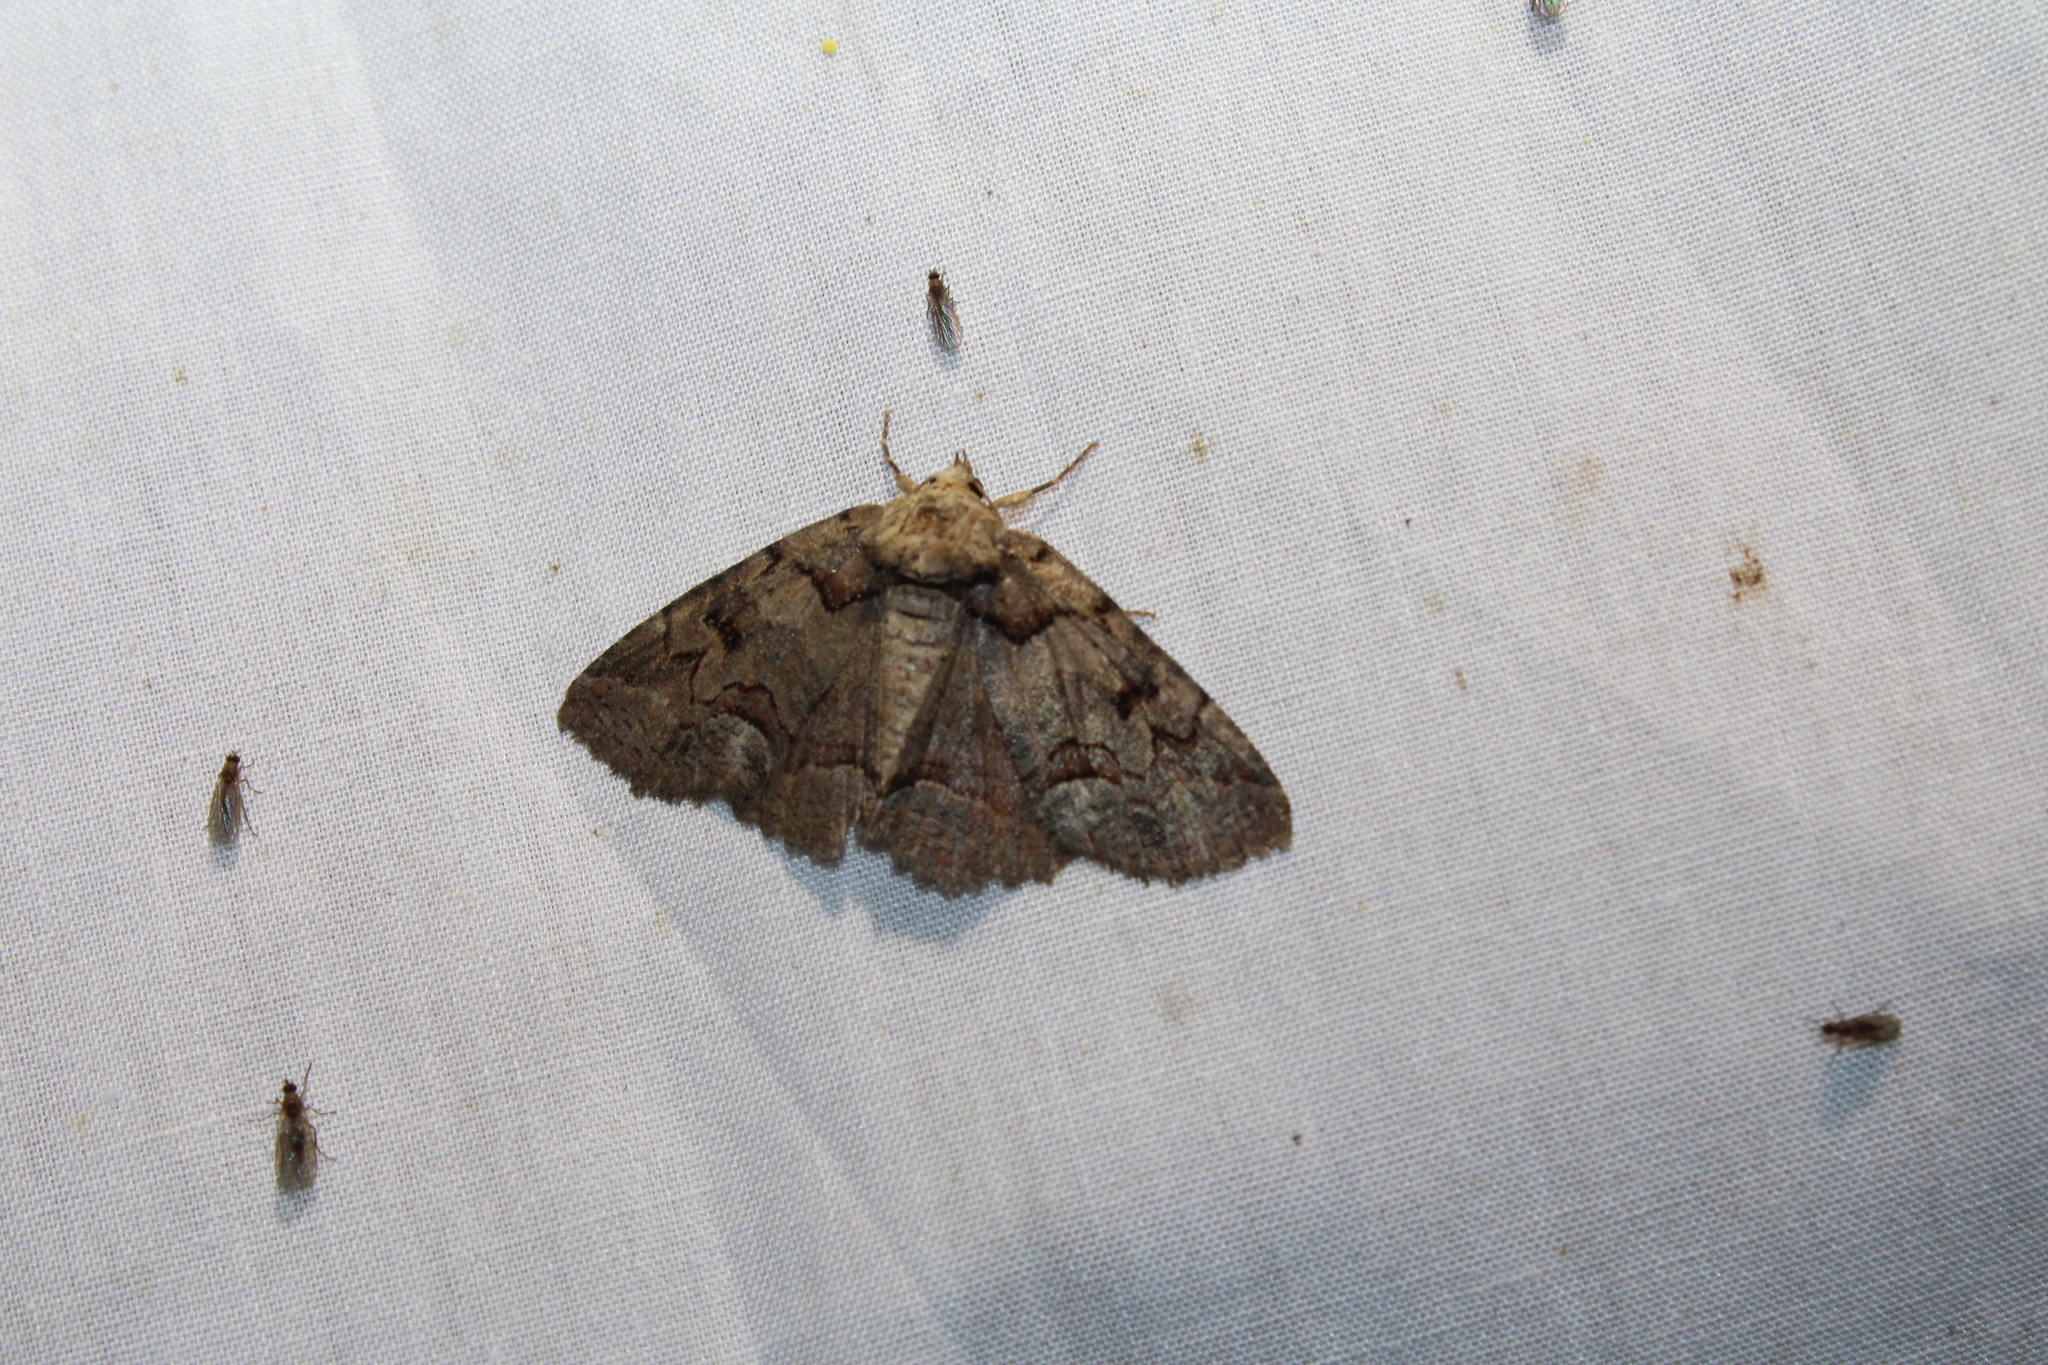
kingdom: Animalia
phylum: Arthropoda
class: Insecta
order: Lepidoptera
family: Erebidae
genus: Zale
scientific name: Zale helata
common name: Brown-spotted zale moth
